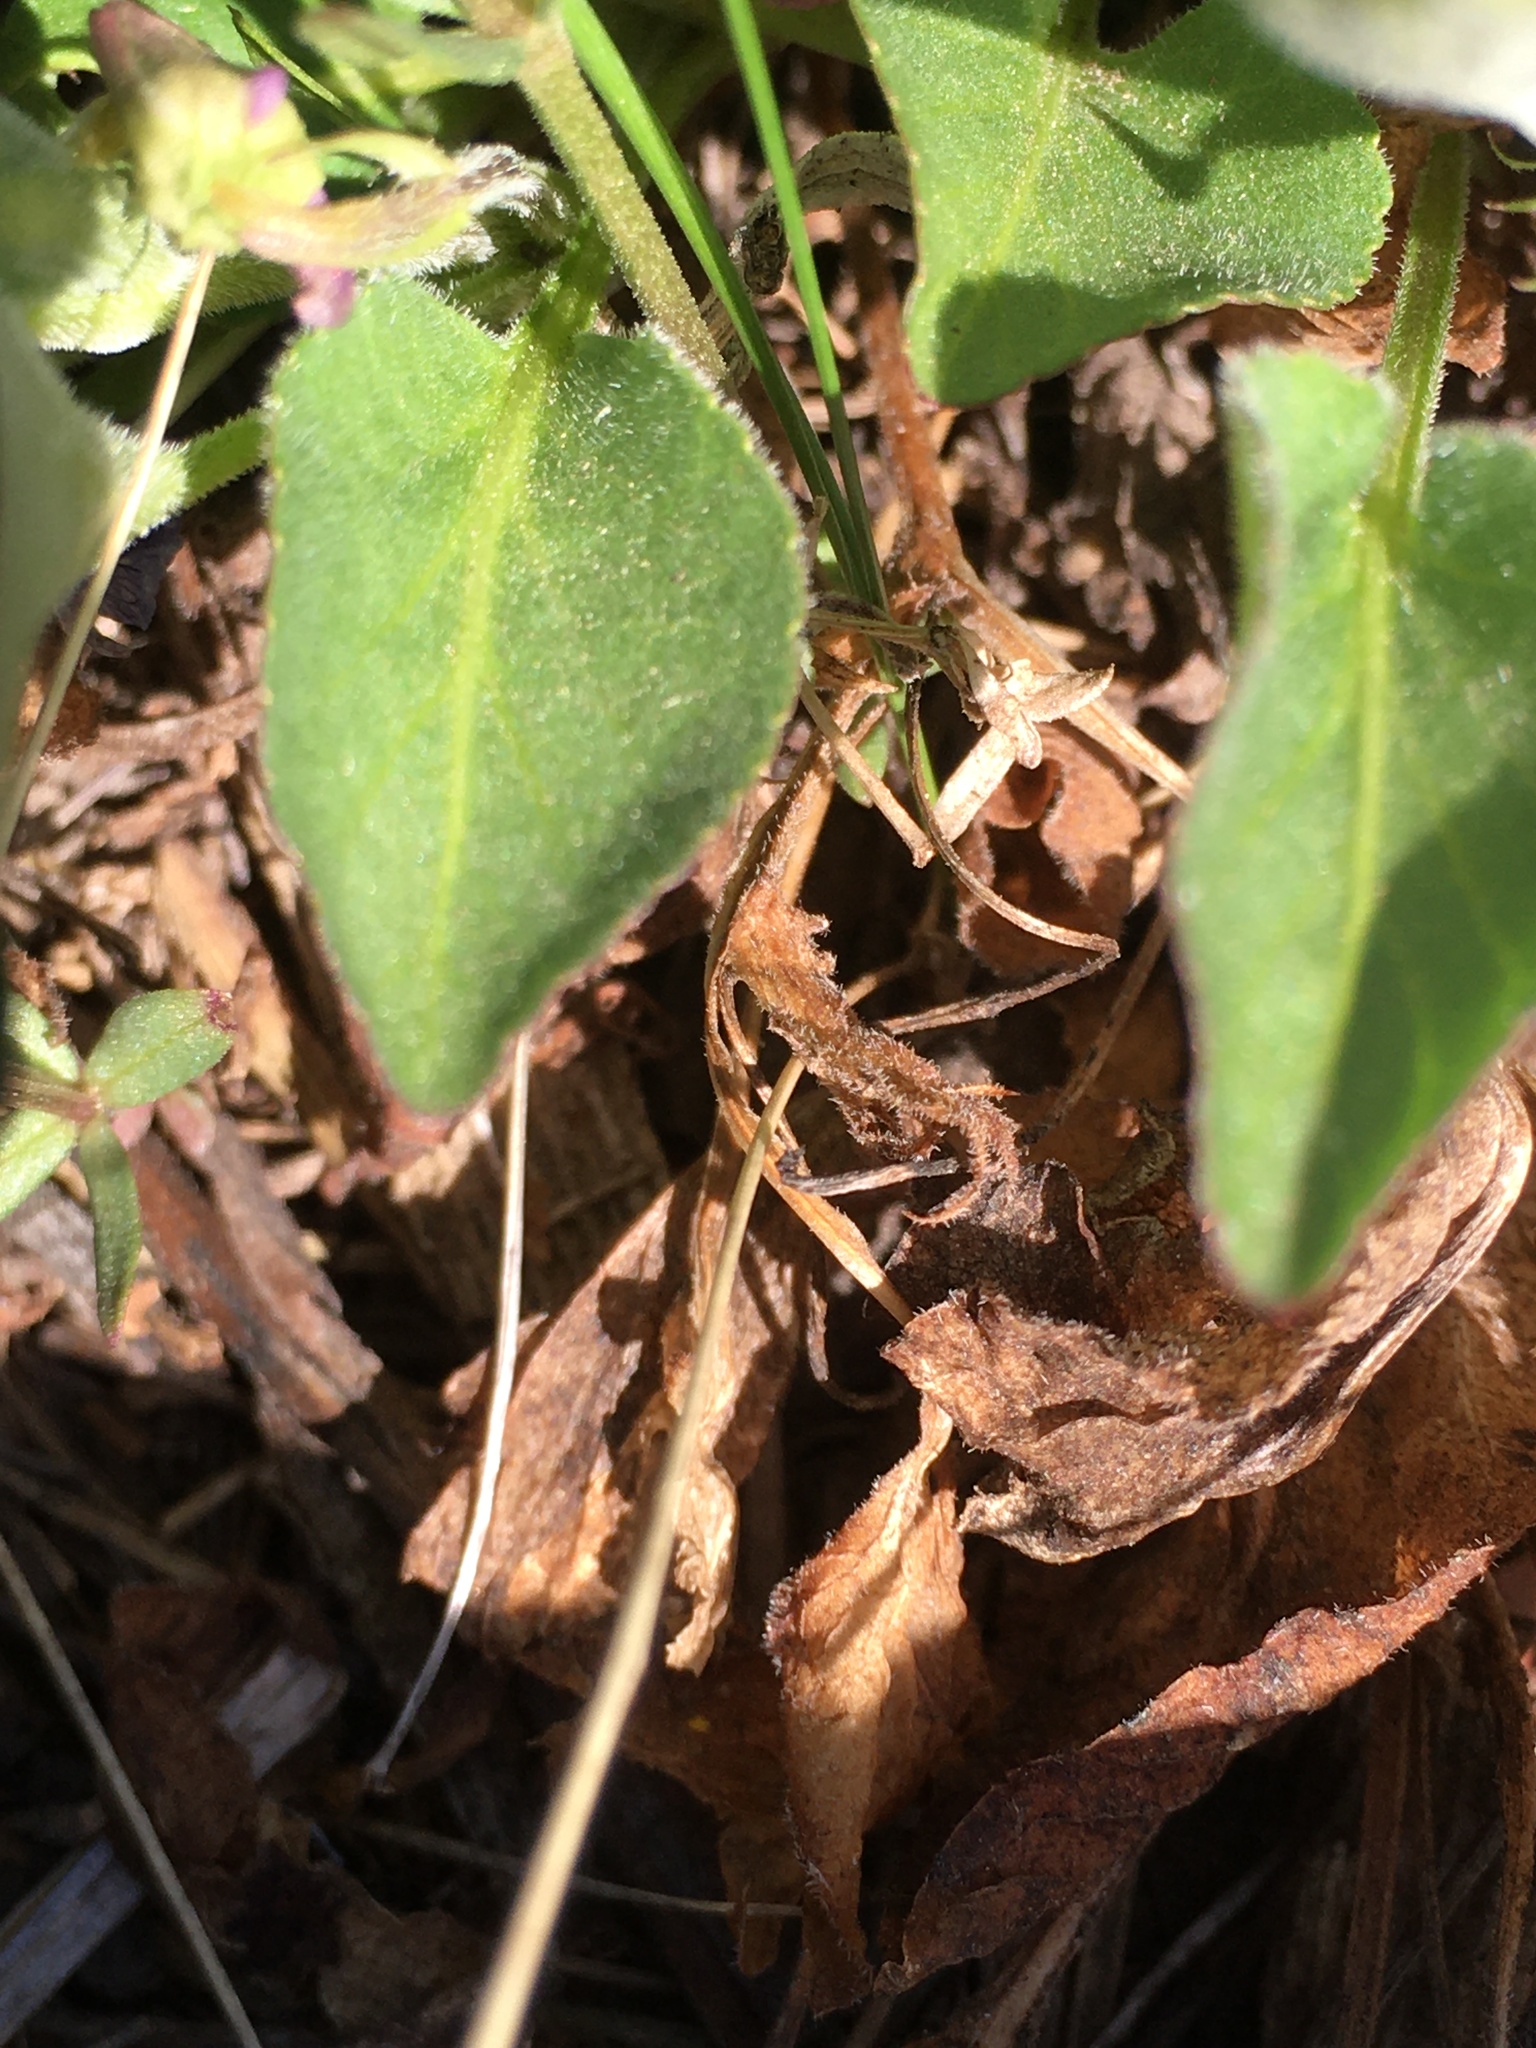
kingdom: Plantae
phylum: Tracheophyta
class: Magnoliopsida
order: Malpighiales
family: Violaceae
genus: Viola
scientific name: Viola adunca
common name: Sand violet
